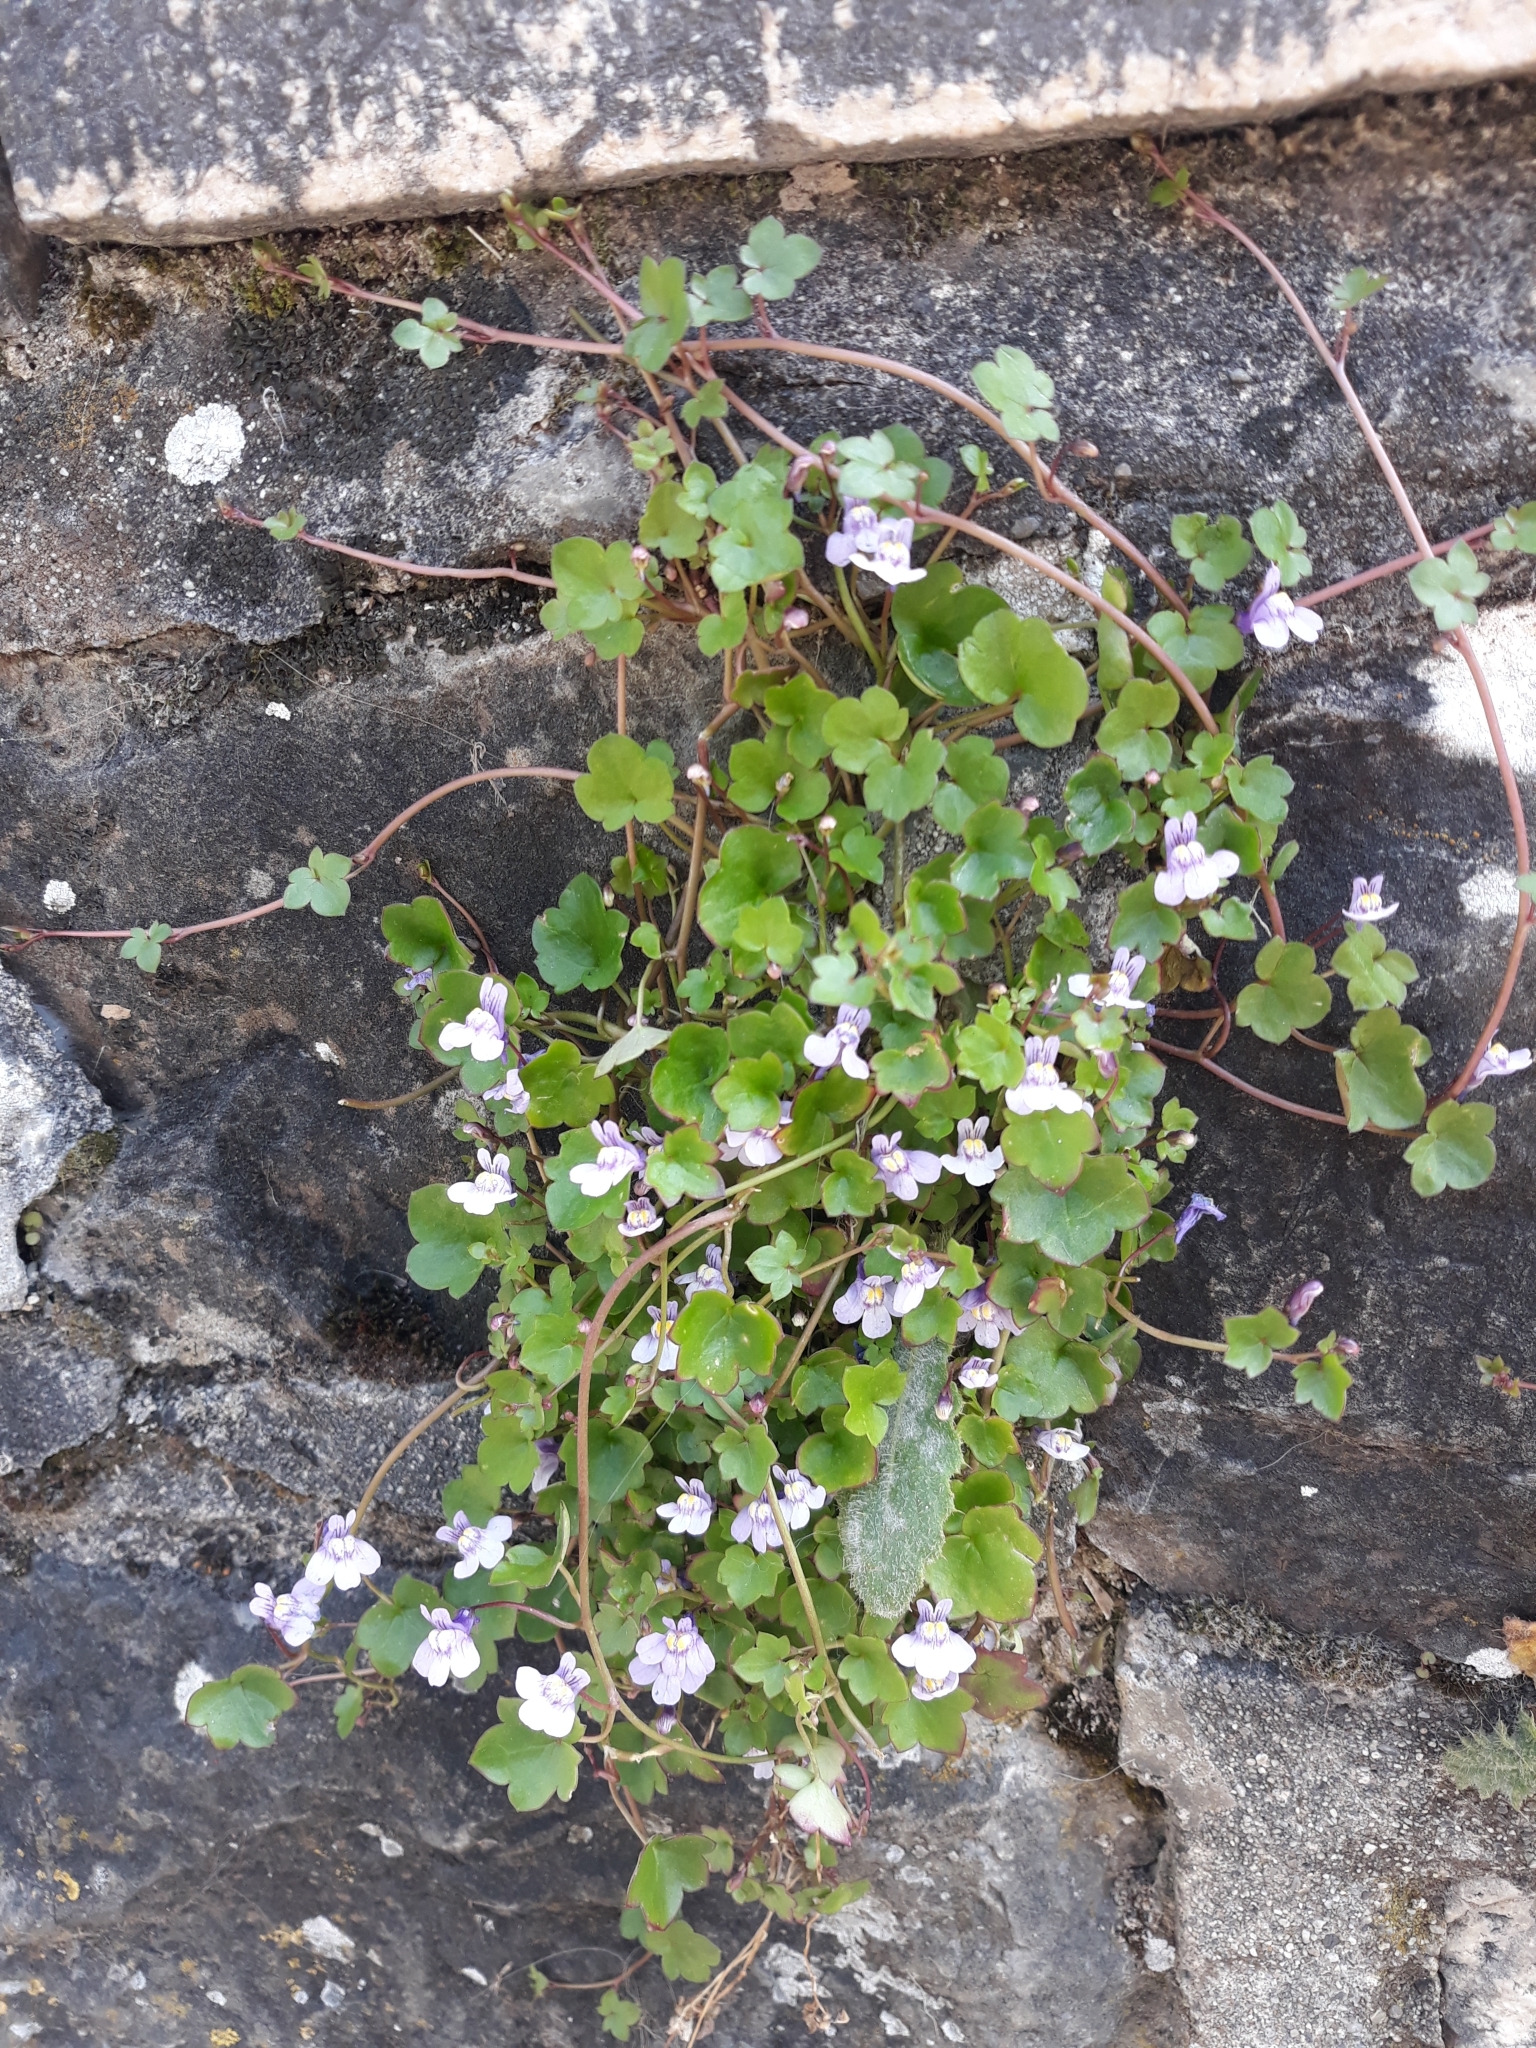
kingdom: Plantae
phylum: Tracheophyta
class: Magnoliopsida
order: Lamiales
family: Plantaginaceae
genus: Cymbalaria
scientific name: Cymbalaria muralis
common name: Ivy-leaved toadflax
